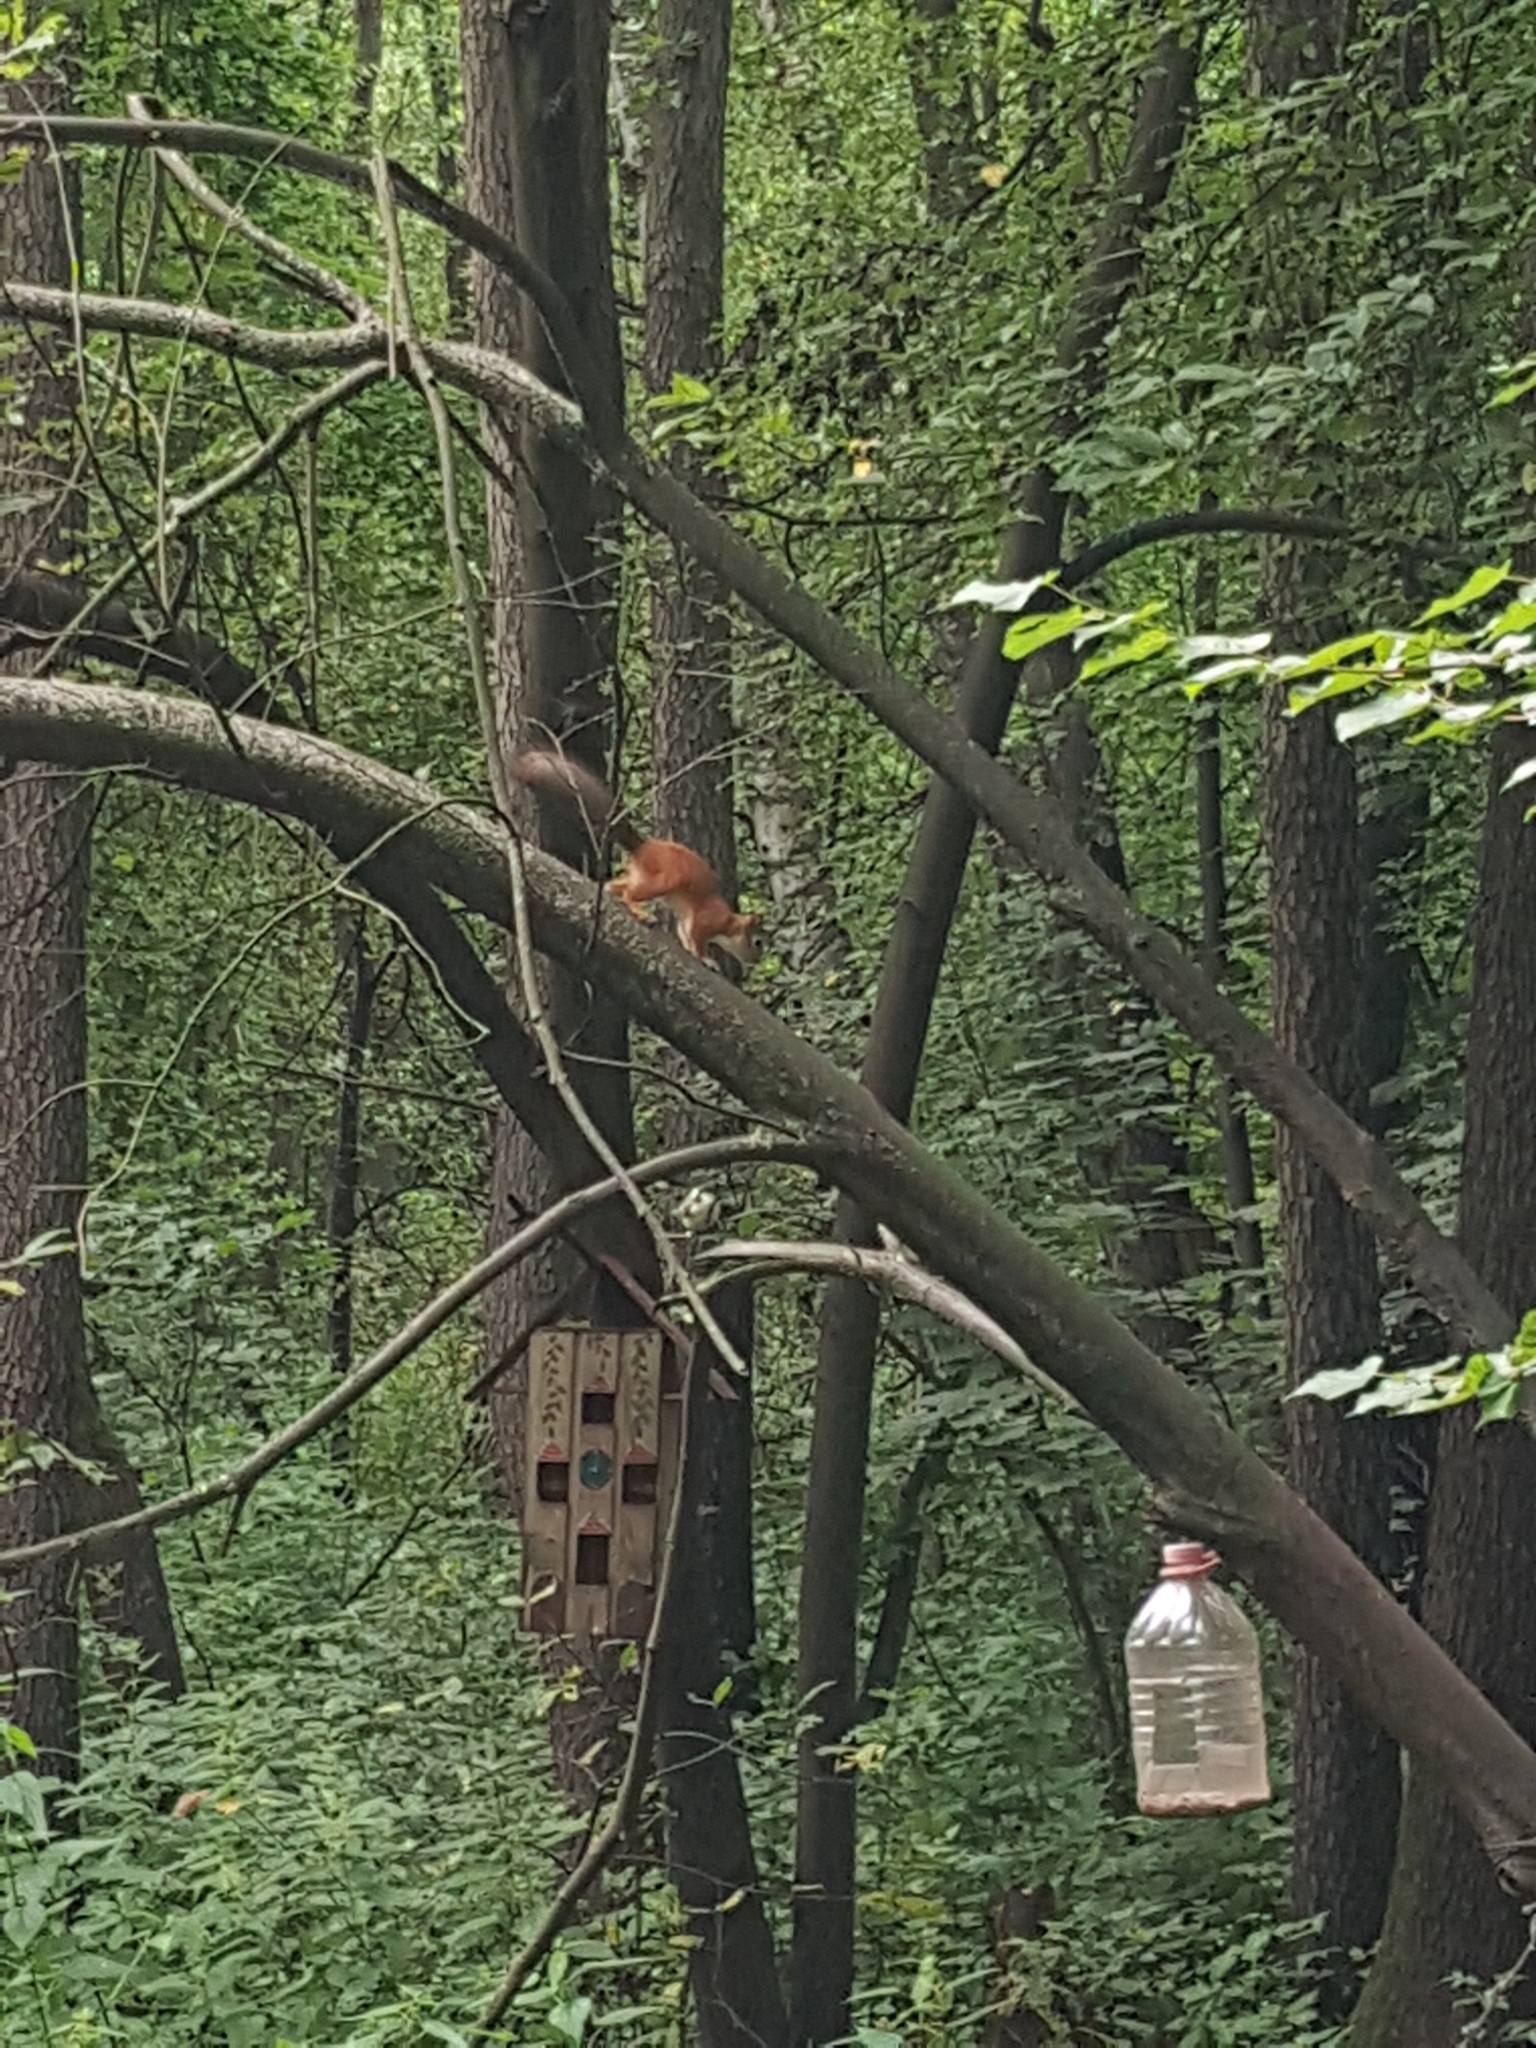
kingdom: Animalia
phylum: Chordata
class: Mammalia
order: Rodentia
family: Sciuridae
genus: Sciurus
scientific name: Sciurus vulgaris
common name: Eurasian red squirrel
